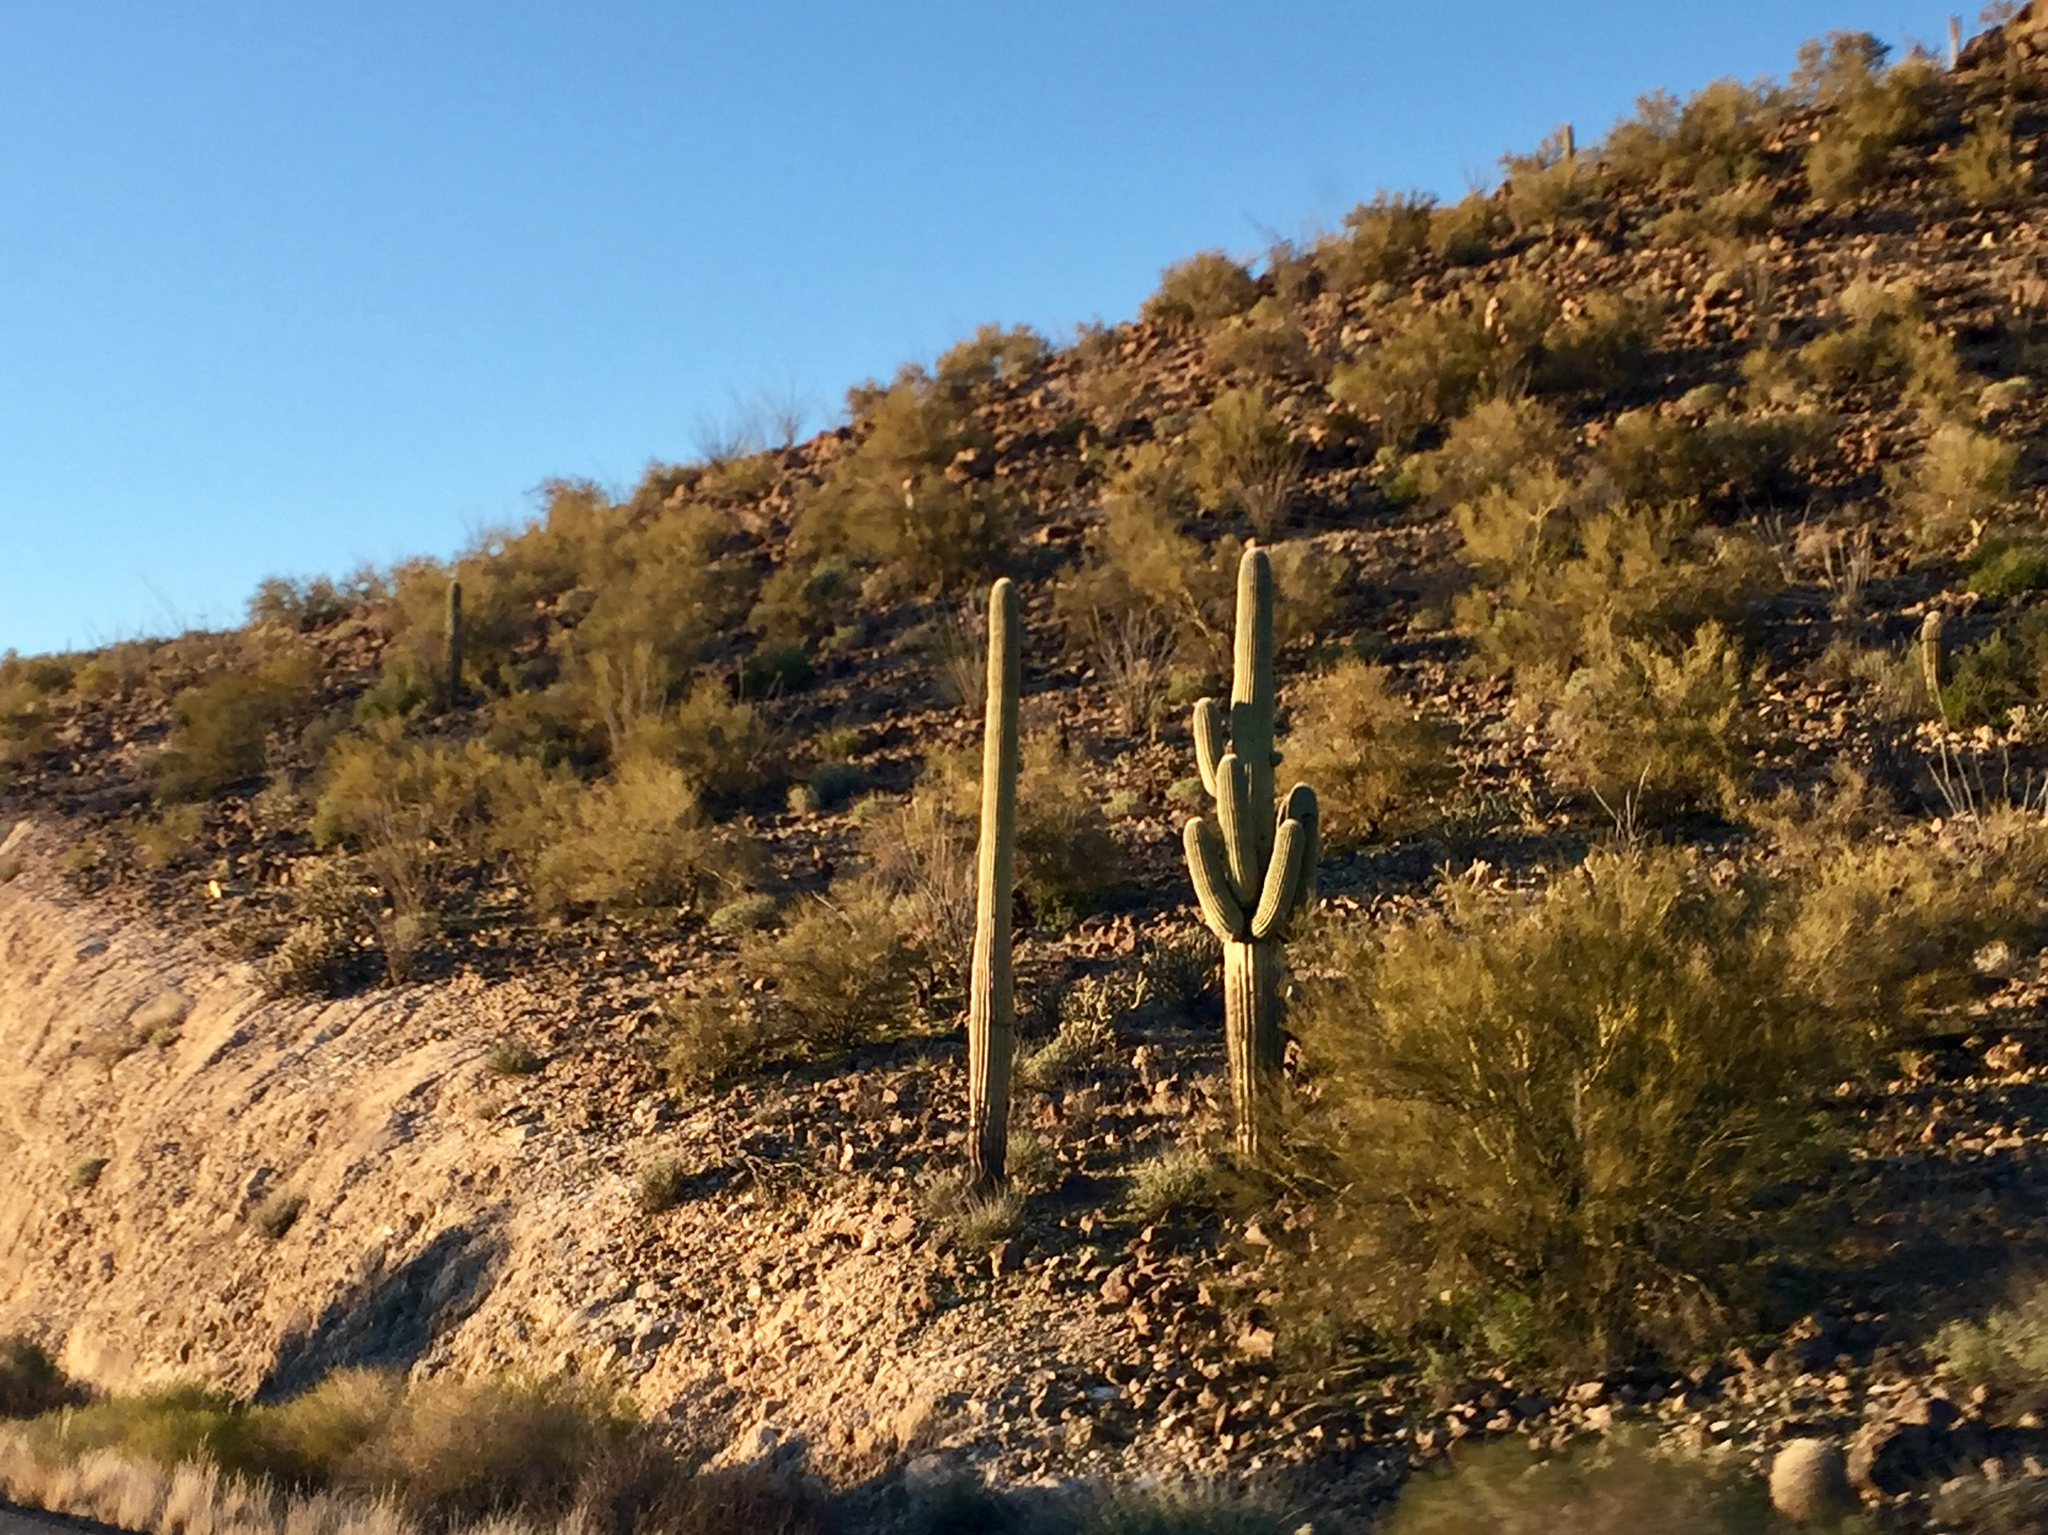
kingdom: Plantae
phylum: Tracheophyta
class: Magnoliopsida
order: Caryophyllales
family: Cactaceae
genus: Carnegiea
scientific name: Carnegiea gigantea
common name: Saguaro
